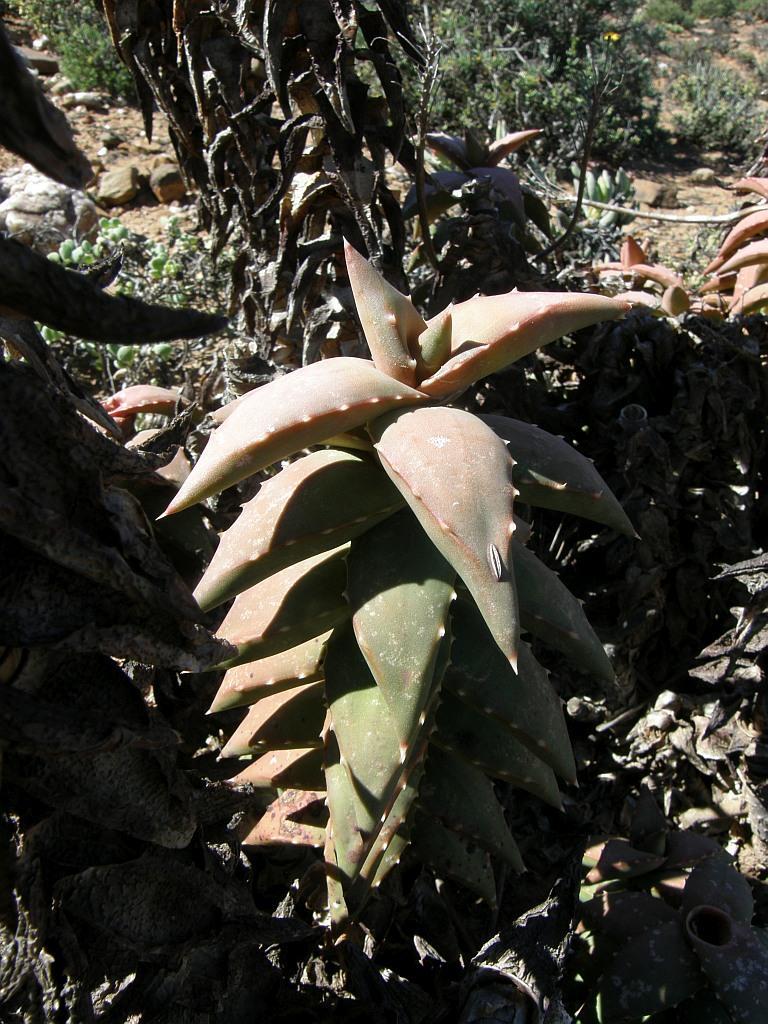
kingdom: Plantae
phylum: Tracheophyta
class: Liliopsida
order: Asparagales
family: Asphodelaceae
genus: Aloe
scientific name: Aloe pearsonii
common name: Pearson's aloe
